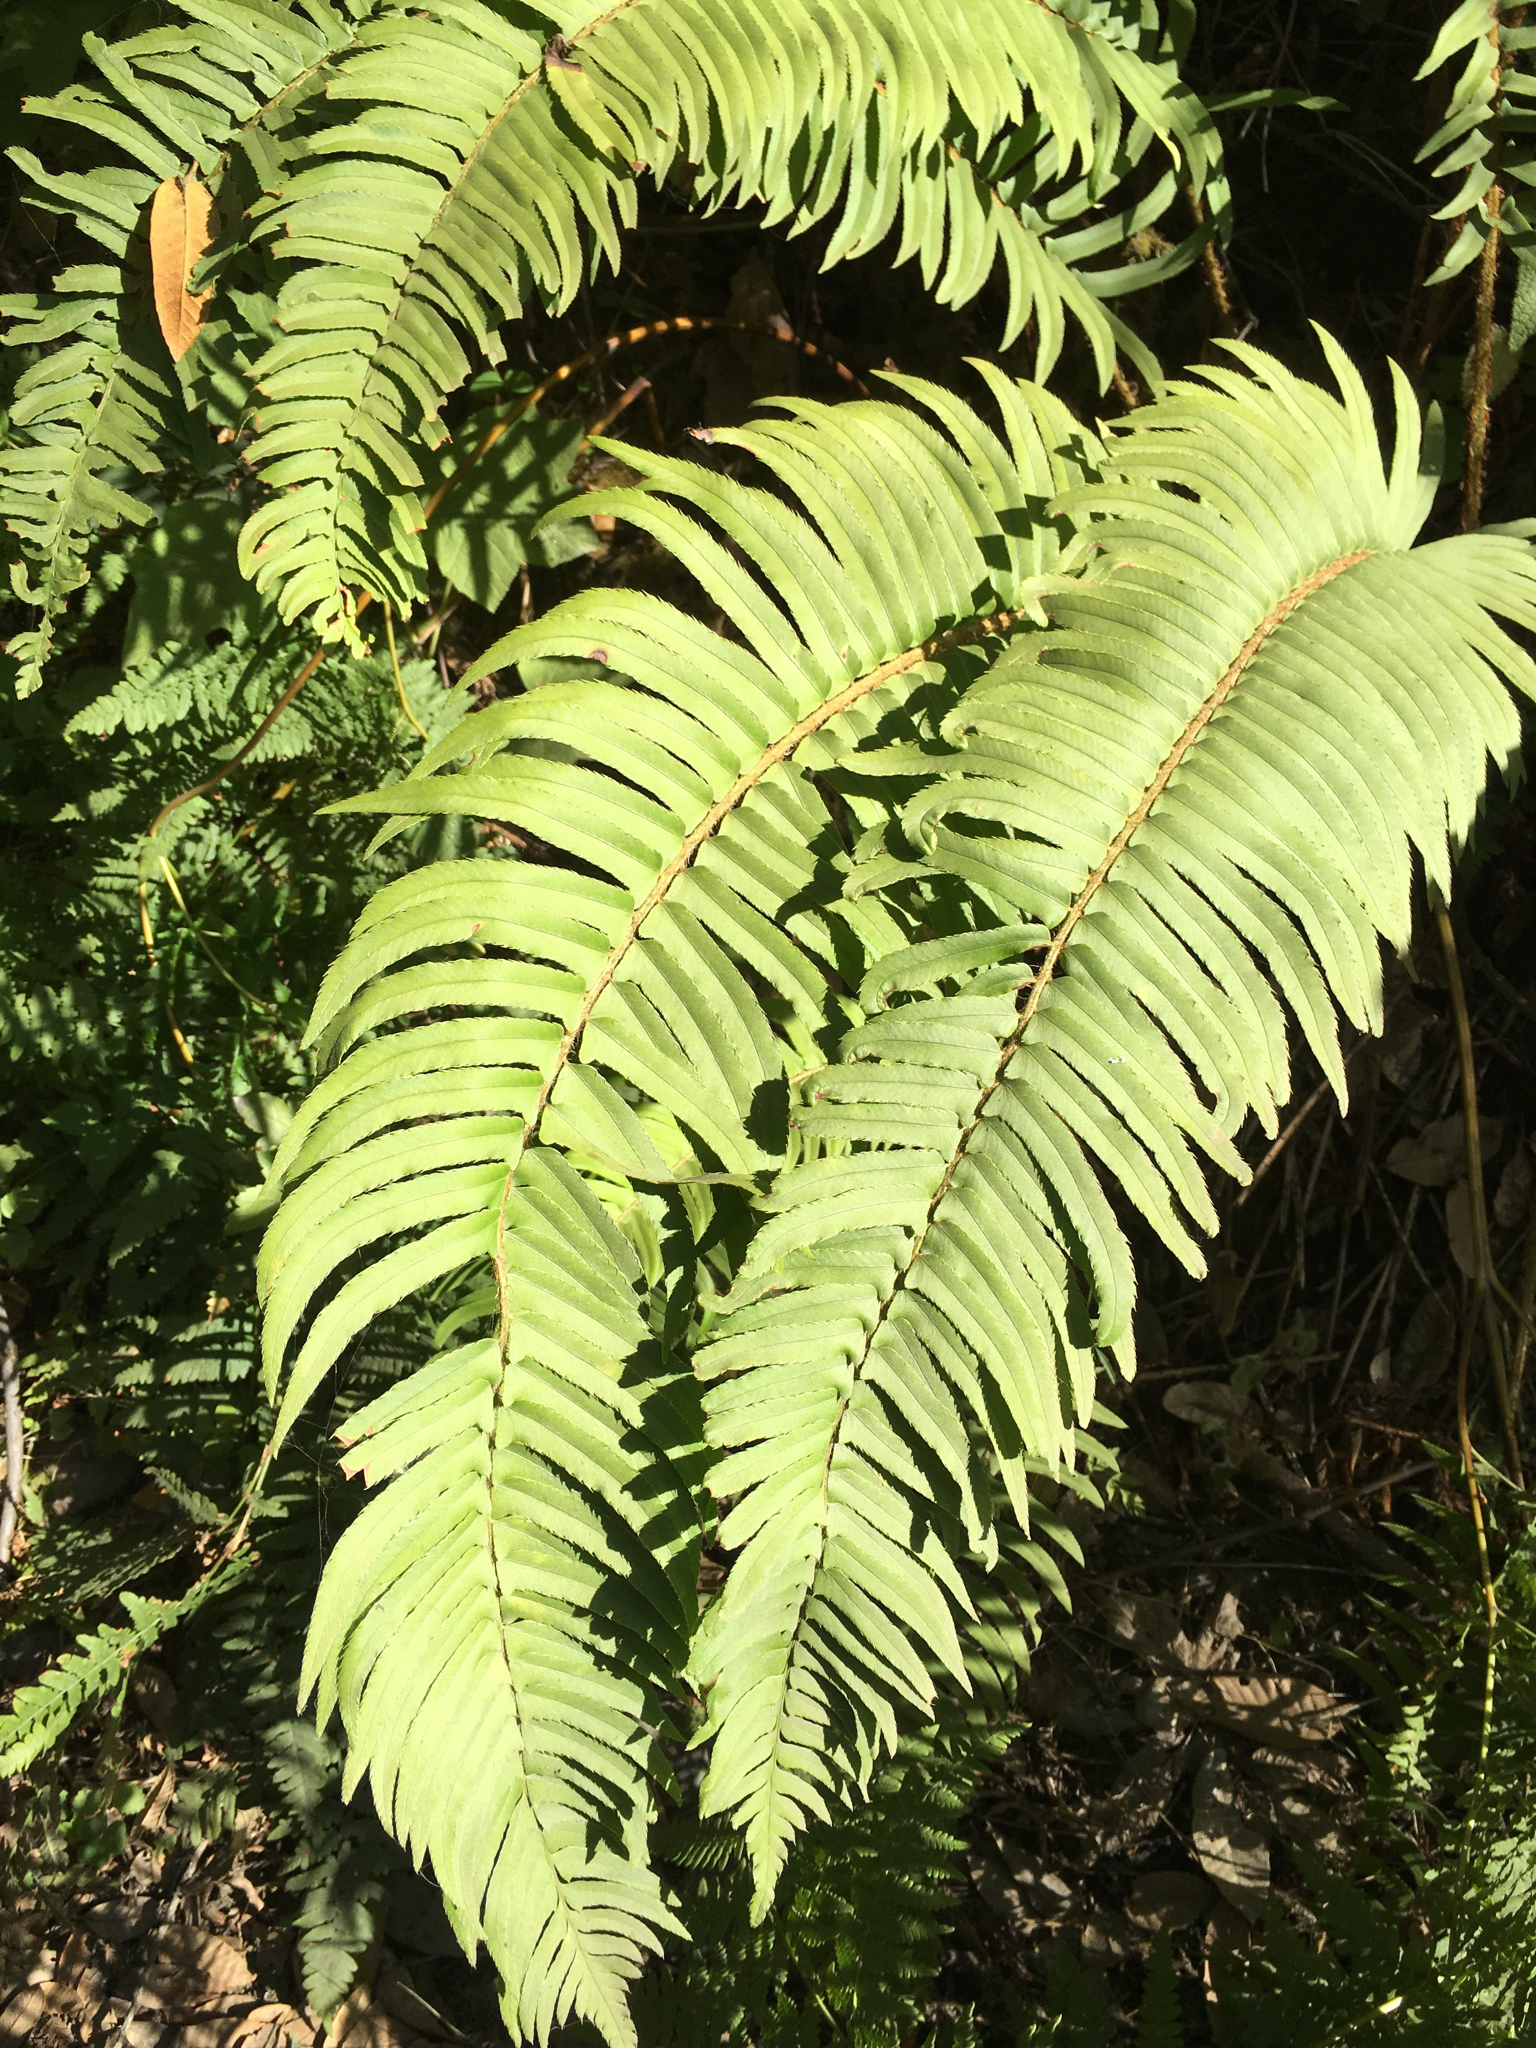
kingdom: Plantae
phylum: Tracheophyta
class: Polypodiopsida
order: Polypodiales
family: Dryopteridaceae
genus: Polystichum
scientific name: Polystichum munitum
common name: Western sword-fern
